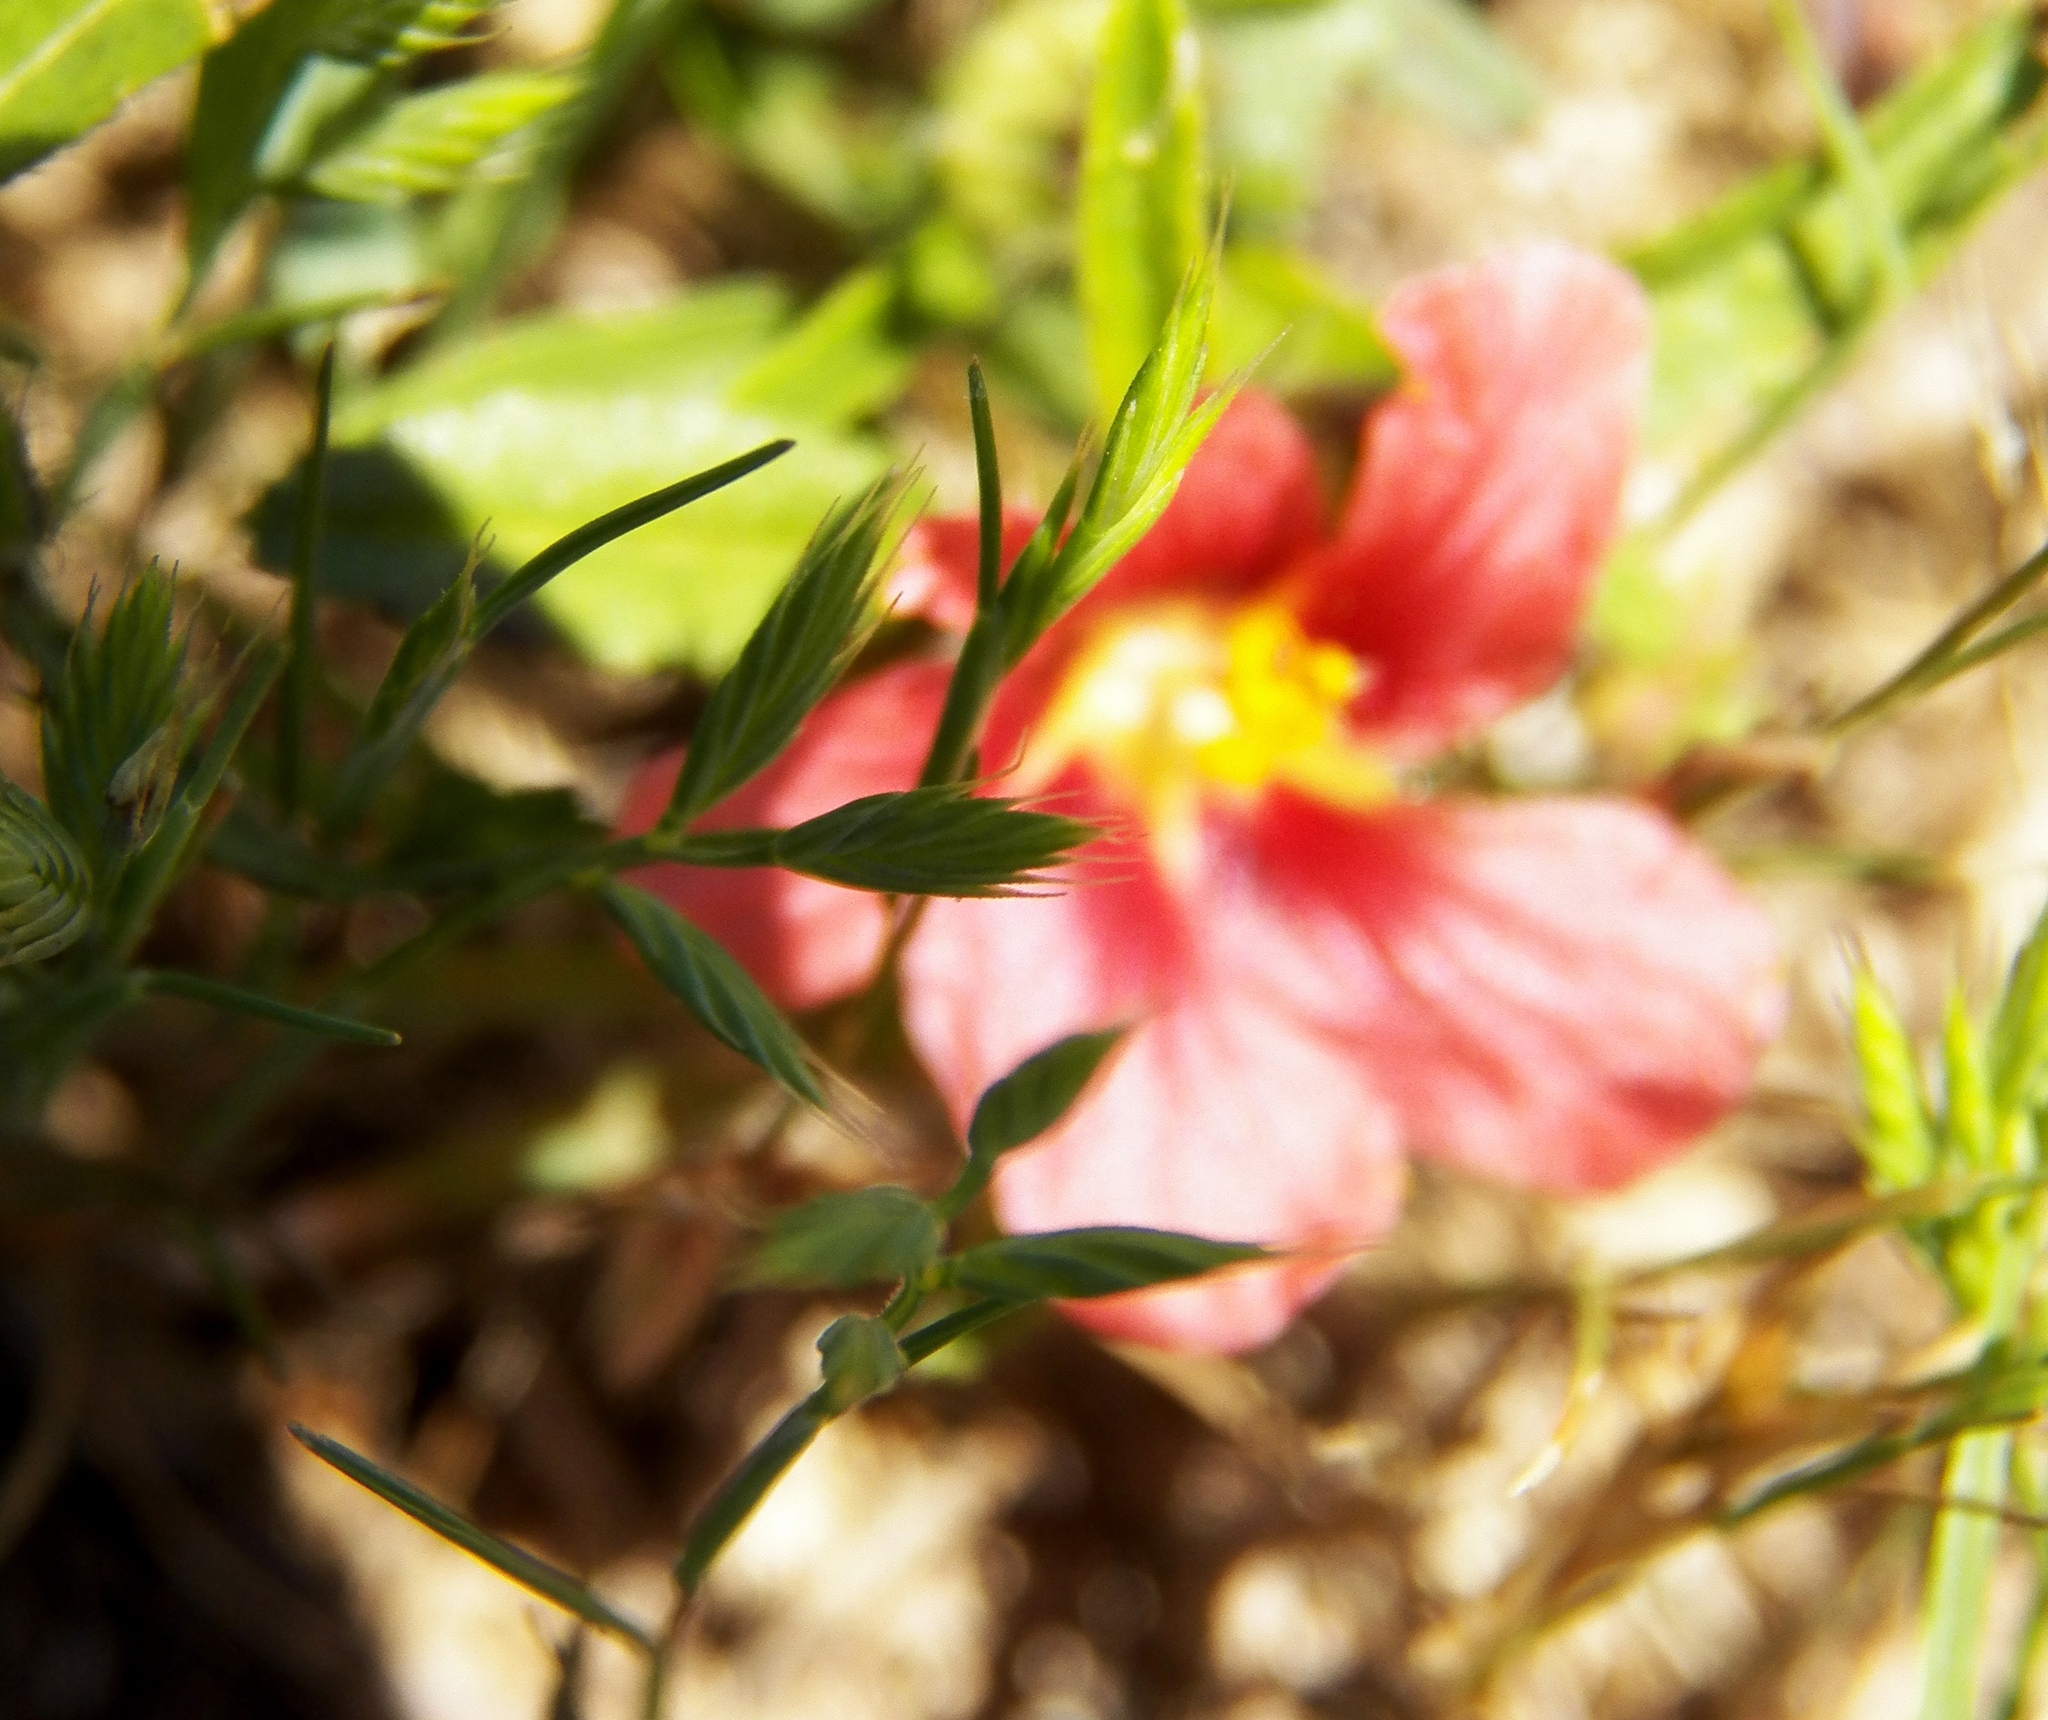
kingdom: Plantae
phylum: Tracheophyta
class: Magnoliopsida
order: Malvales
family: Malvaceae
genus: Sida
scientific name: Sida ciliaris
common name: Bracted fanpetals
